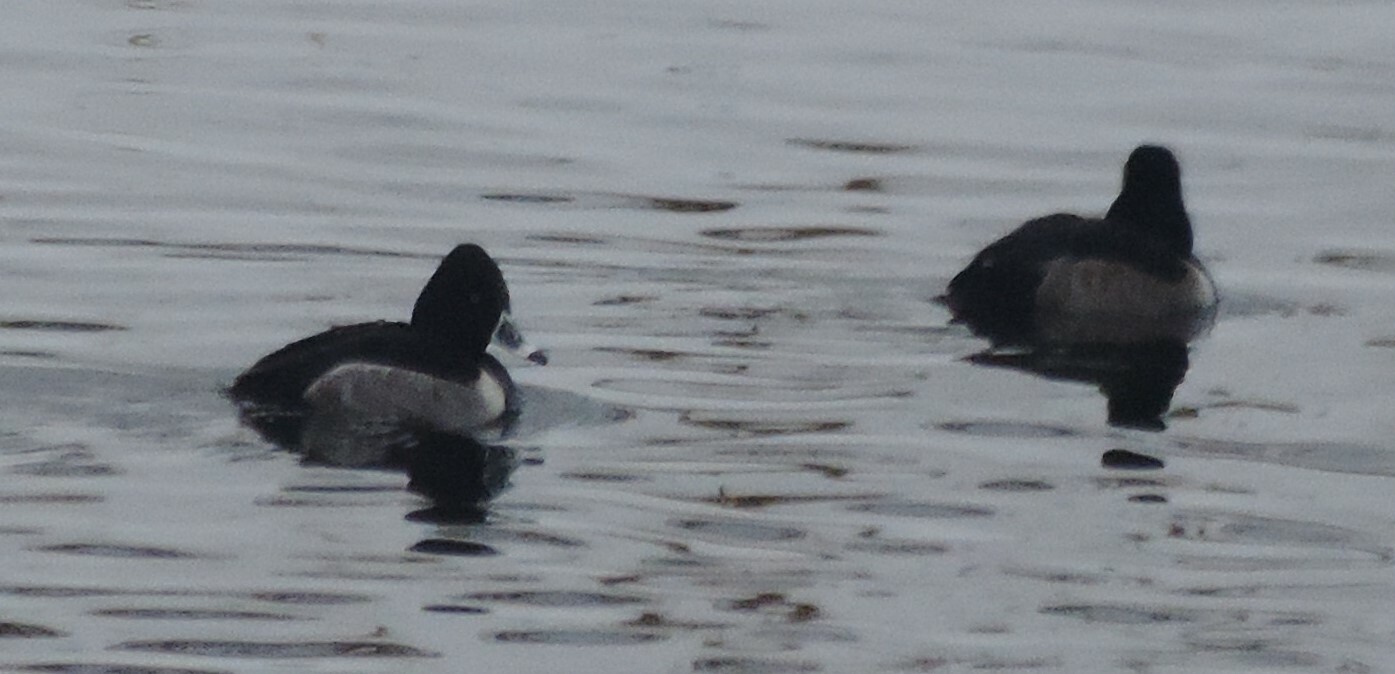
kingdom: Animalia
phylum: Chordata
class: Aves
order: Anseriformes
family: Anatidae
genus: Aythya
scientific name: Aythya collaris
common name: Ring-necked duck
